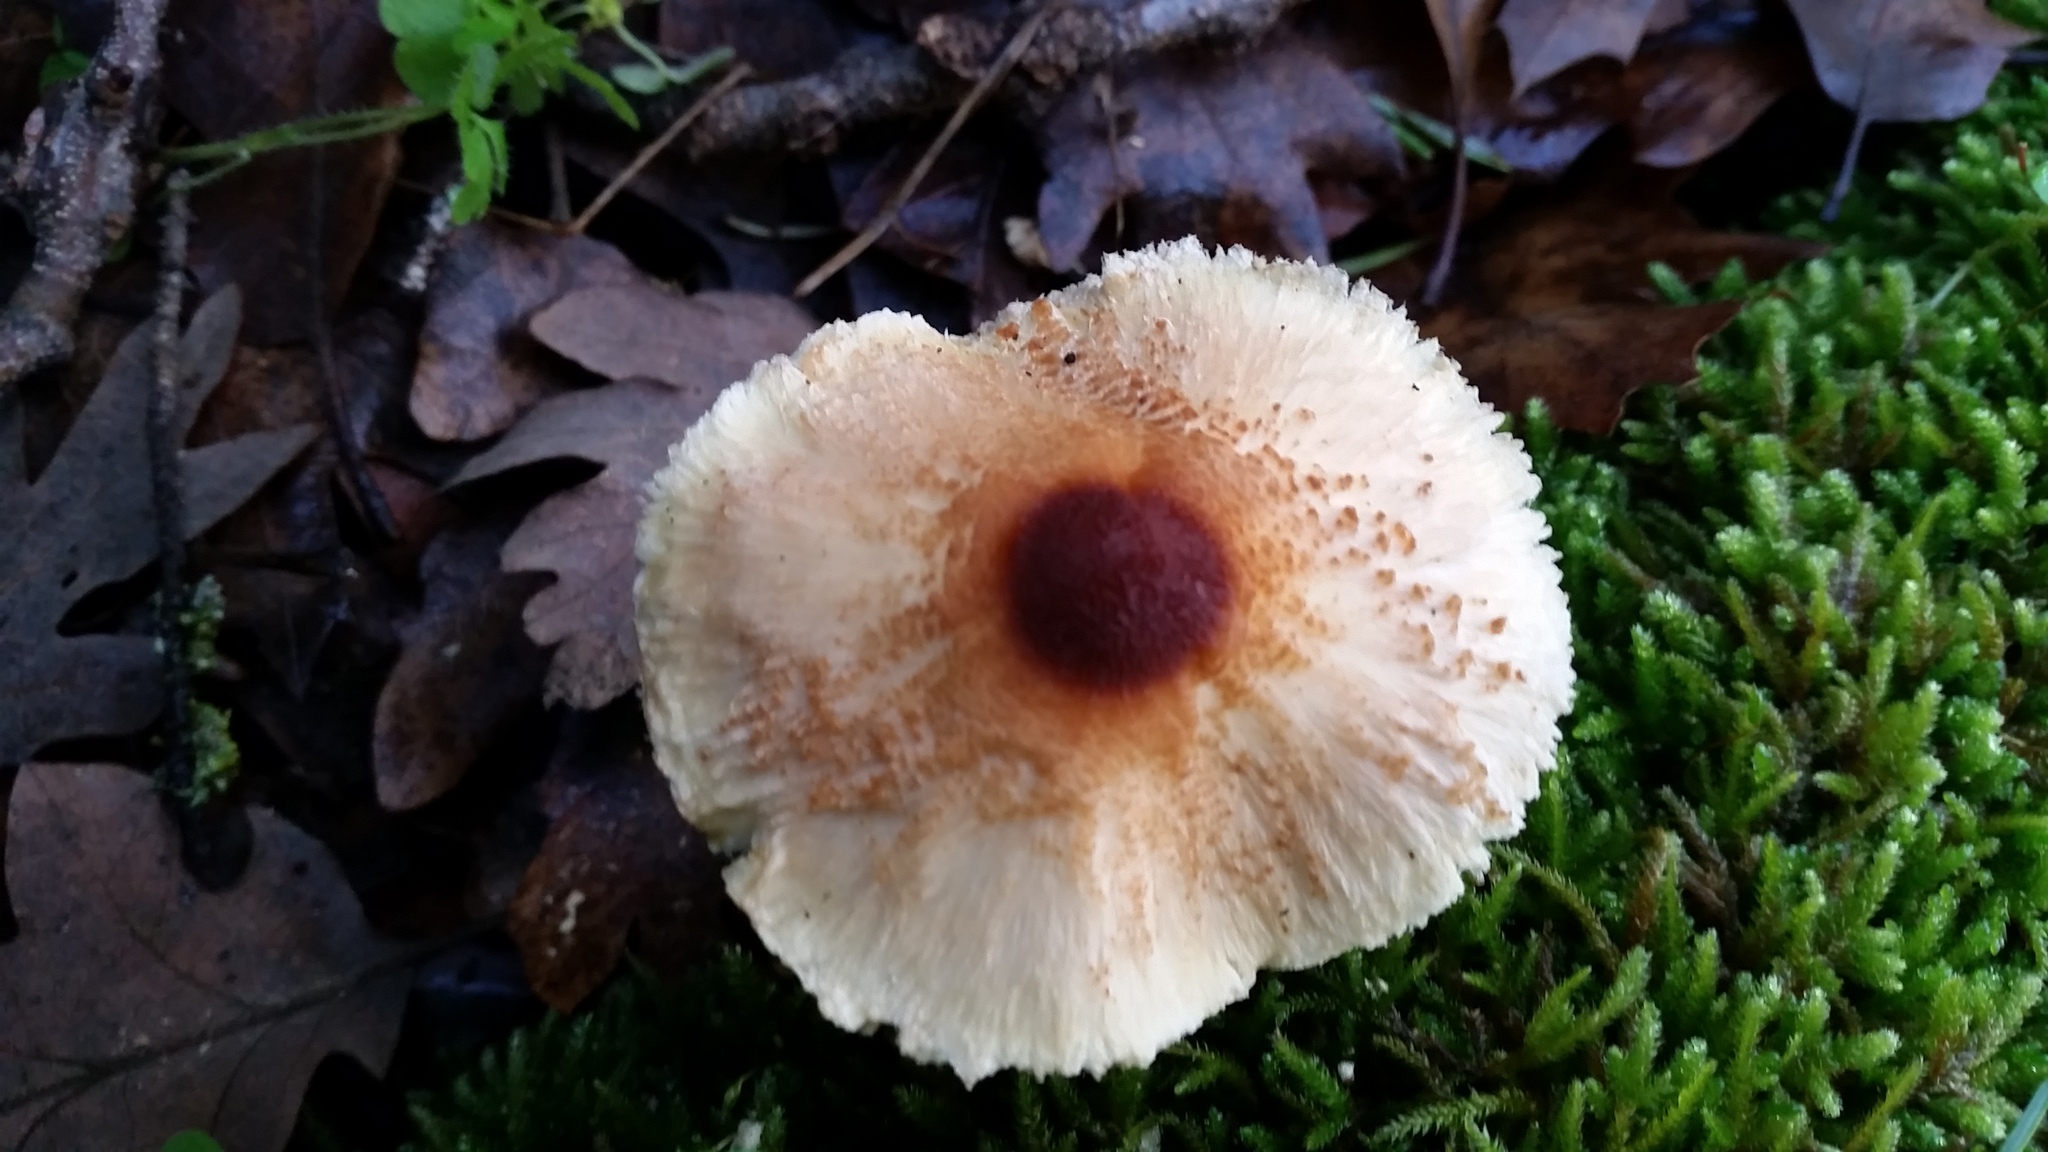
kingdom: Fungi
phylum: Basidiomycota
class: Agaricomycetes
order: Agaricales
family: Agaricaceae
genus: Lepiota
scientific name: Lepiota magnispora
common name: Yellowfoot dapperling
